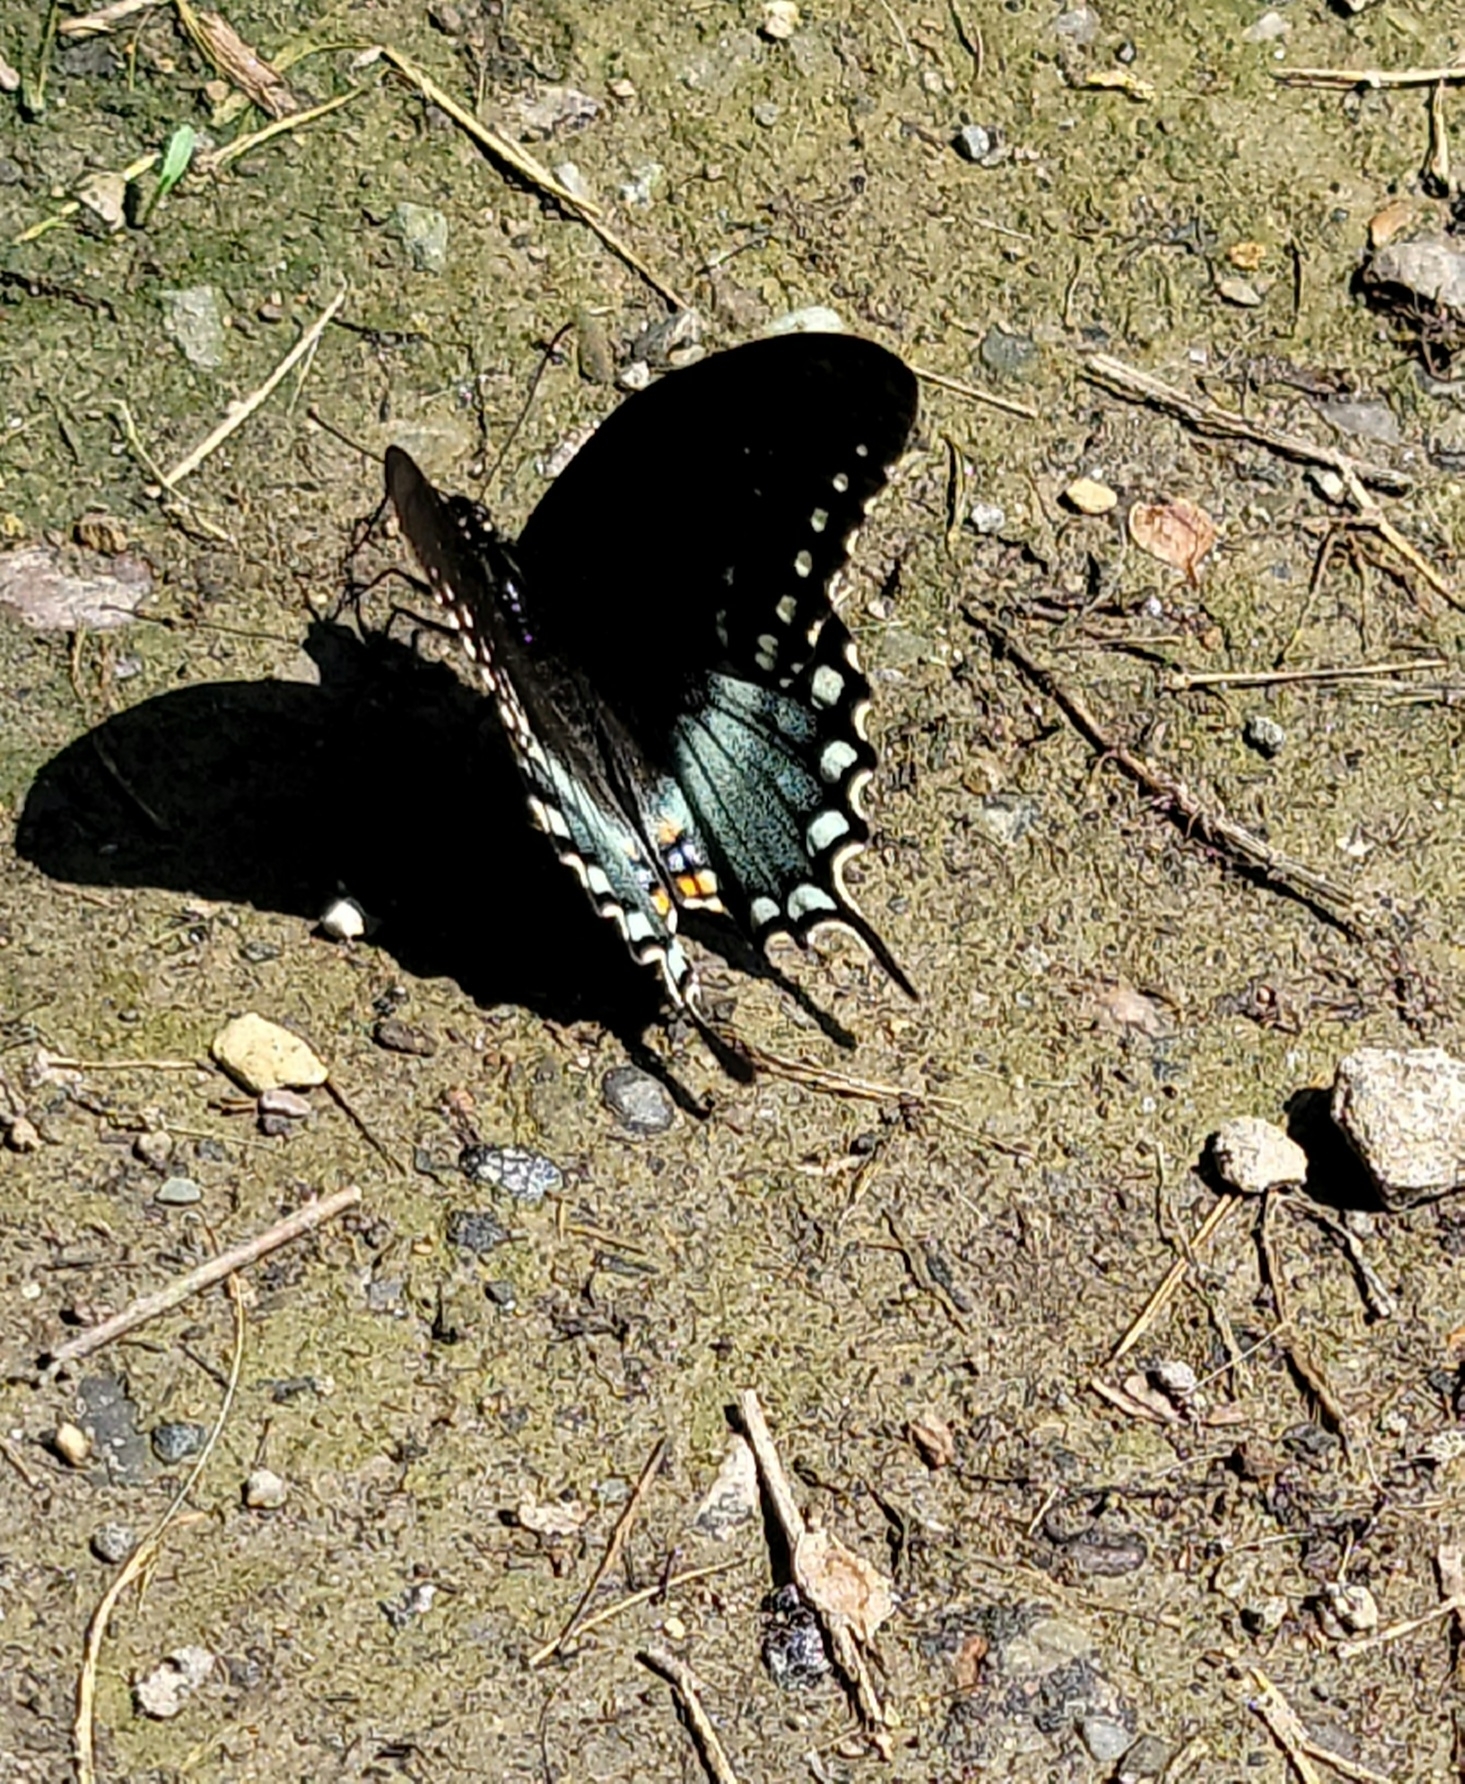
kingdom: Animalia
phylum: Arthropoda
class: Insecta
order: Lepidoptera
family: Papilionidae
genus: Papilio
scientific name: Papilio troilus
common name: Spicebush swallowtail
